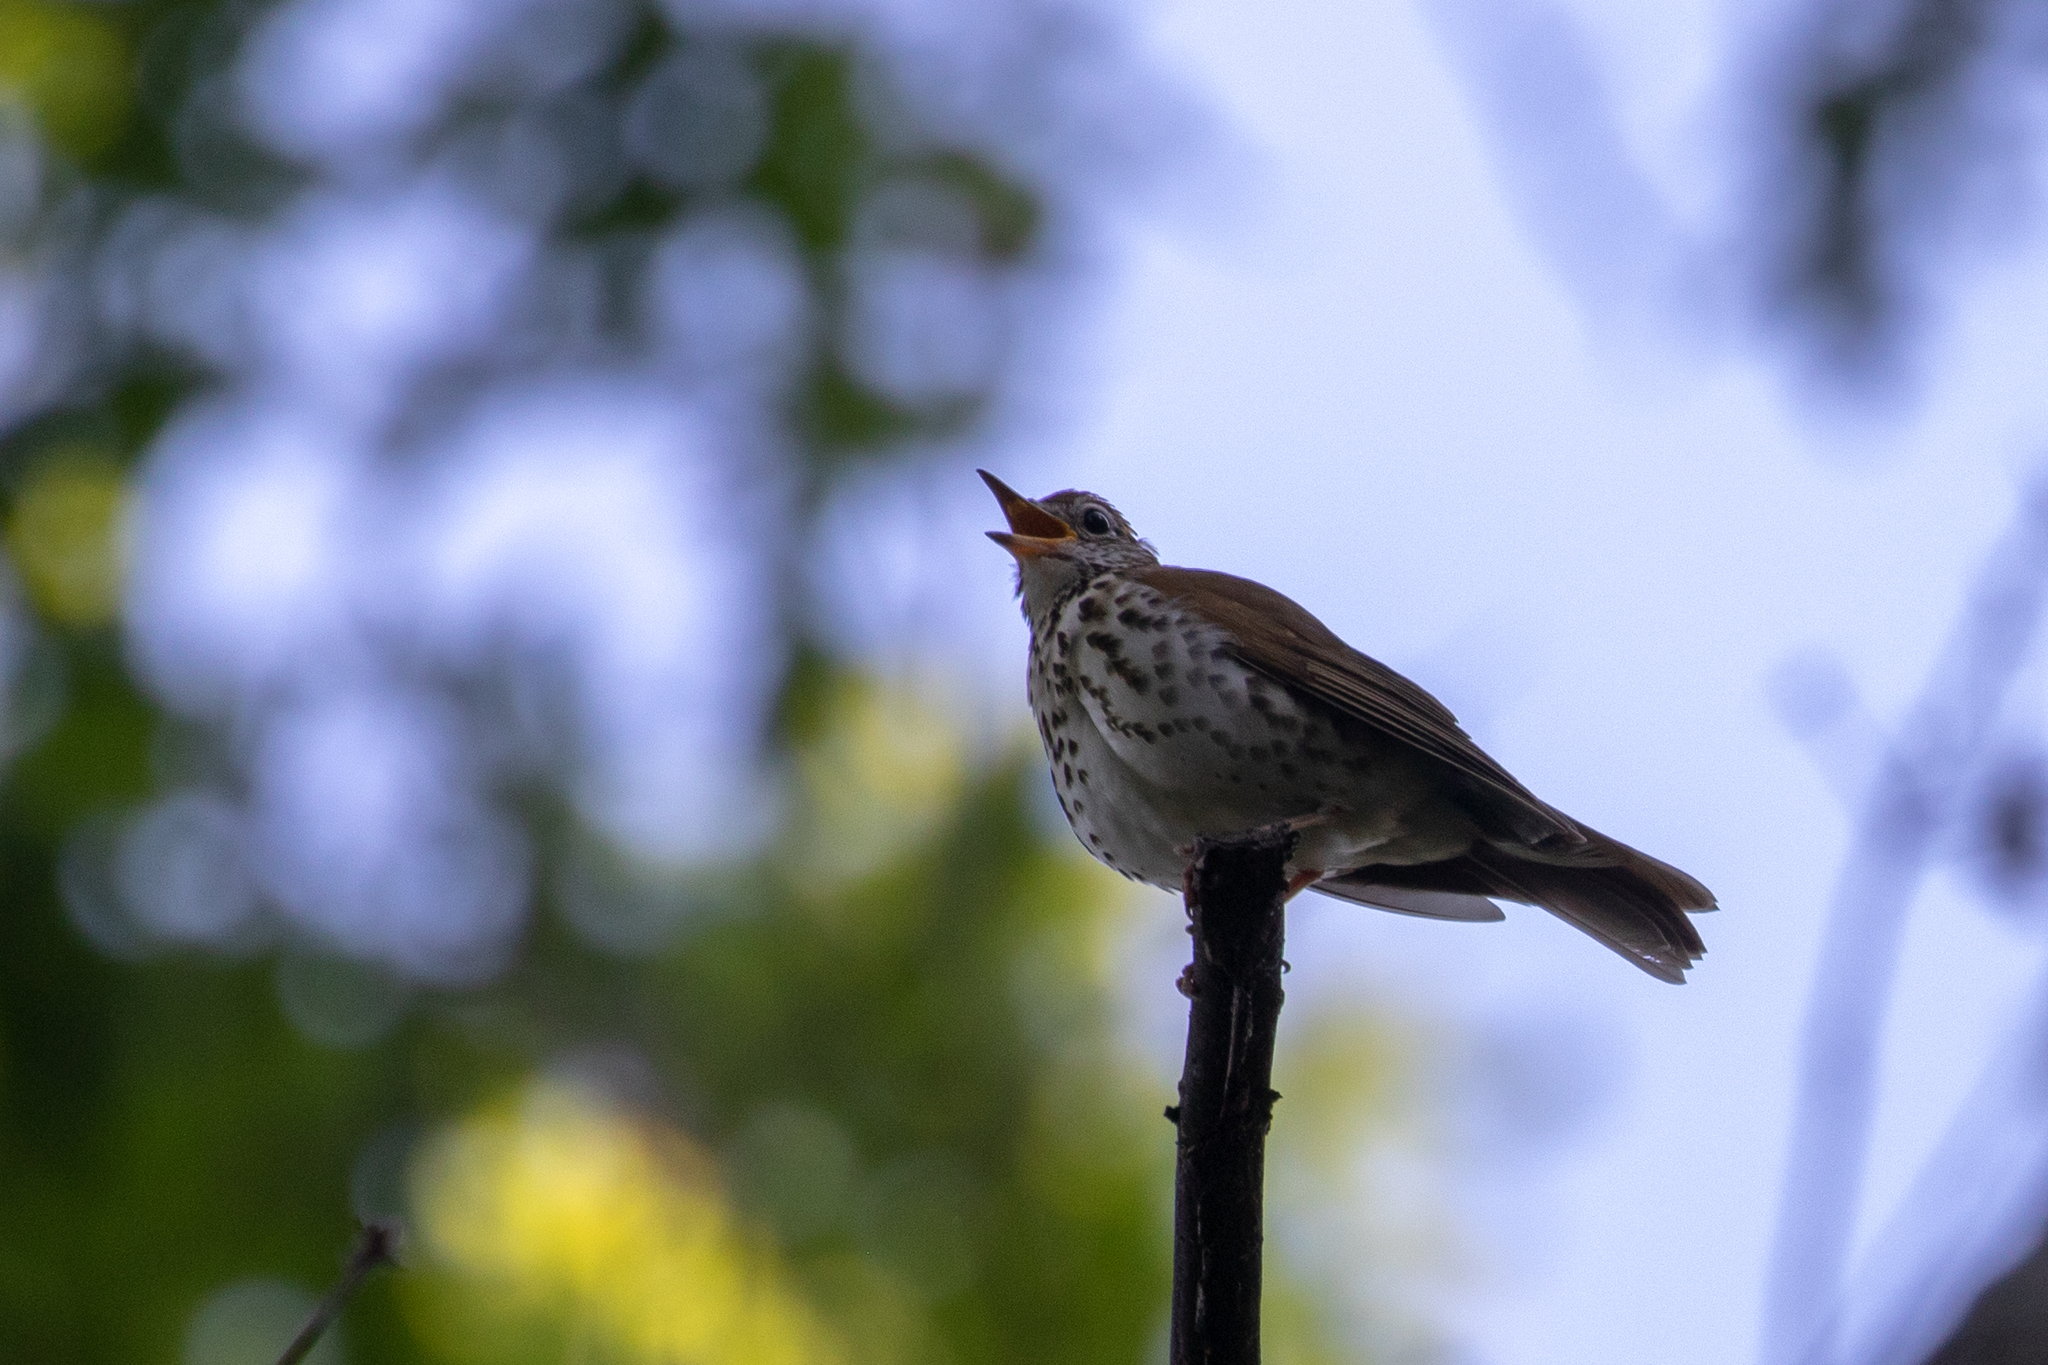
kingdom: Animalia
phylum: Chordata
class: Aves
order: Passeriformes
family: Turdidae
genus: Hylocichla
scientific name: Hylocichla mustelina
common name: Wood thrush
